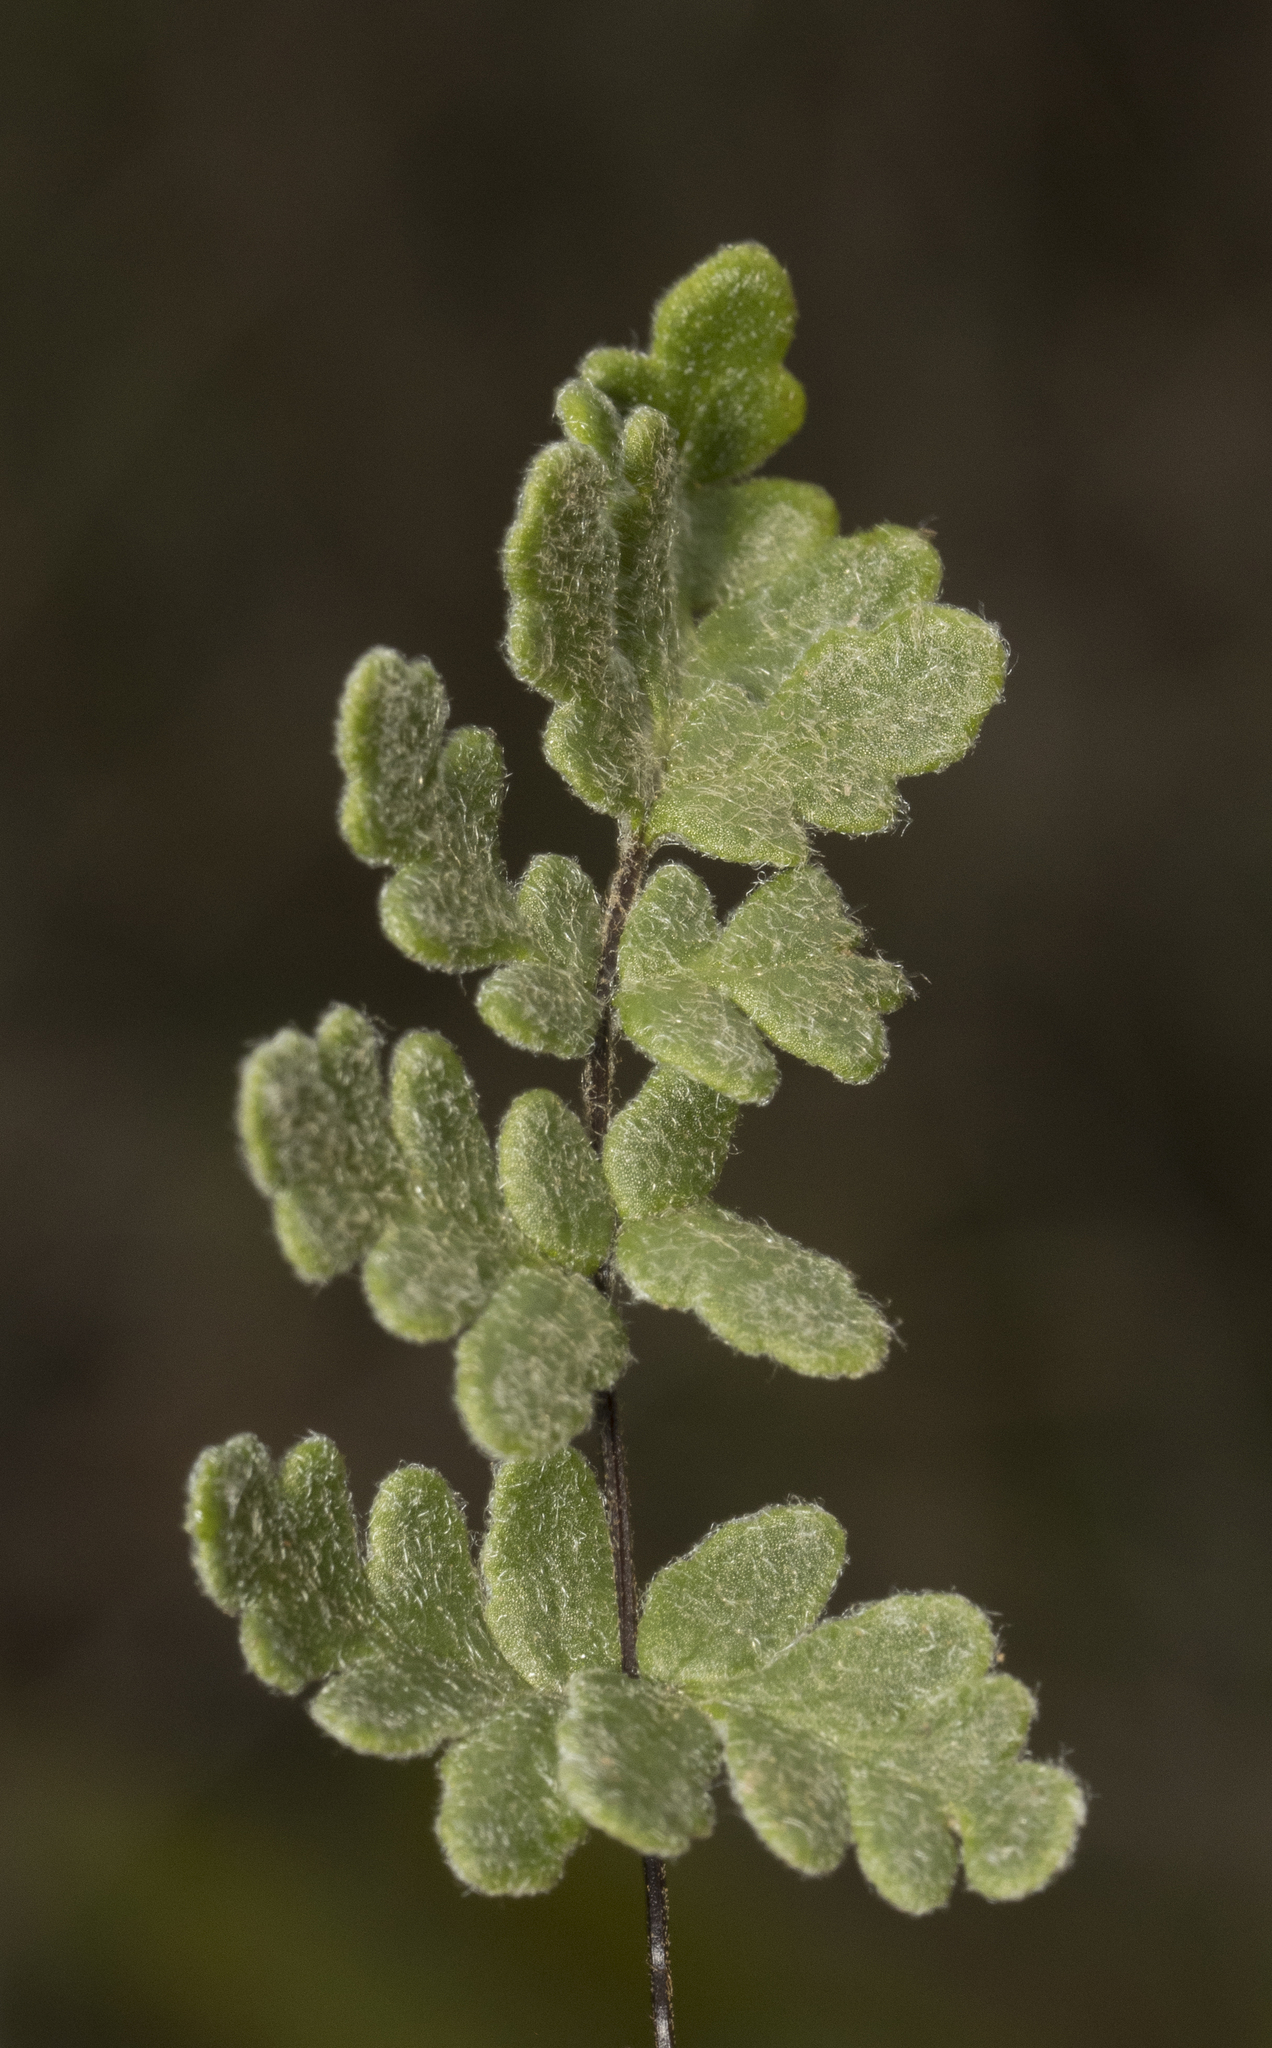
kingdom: Plantae
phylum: Tracheophyta
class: Polypodiopsida
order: Polypodiales
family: Pteridaceae
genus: Cheilanthes
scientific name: Cheilanthes hypoleuca
